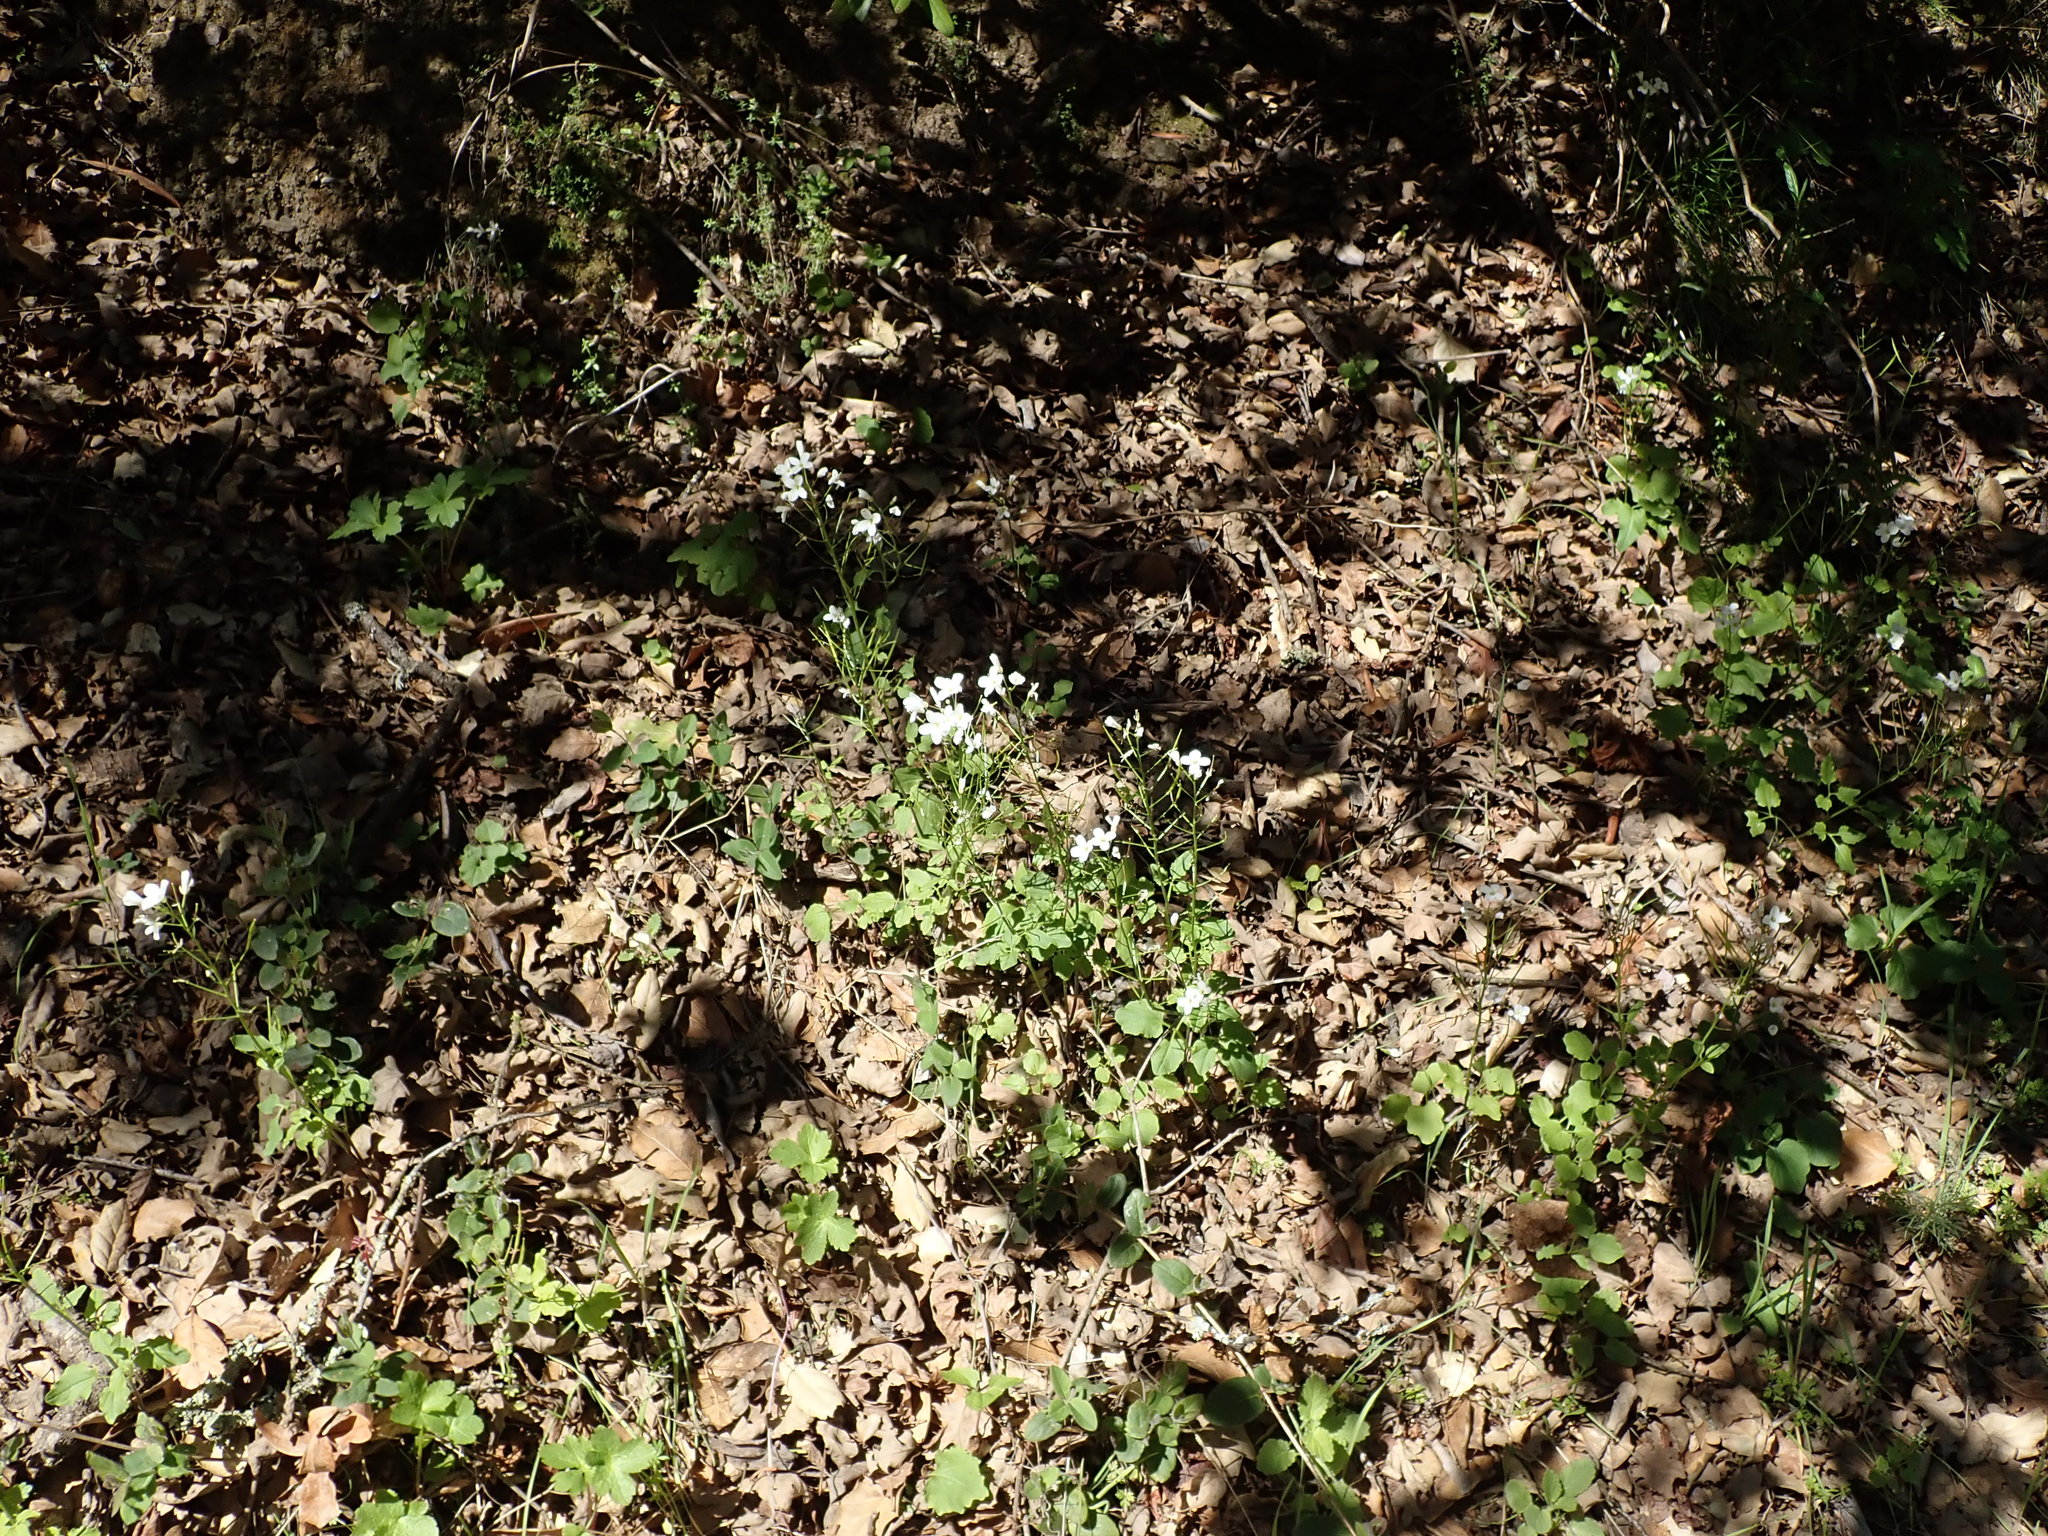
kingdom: Plantae
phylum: Tracheophyta
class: Magnoliopsida
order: Brassicales
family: Brassicaceae
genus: Cardamine
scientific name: Cardamine californica
